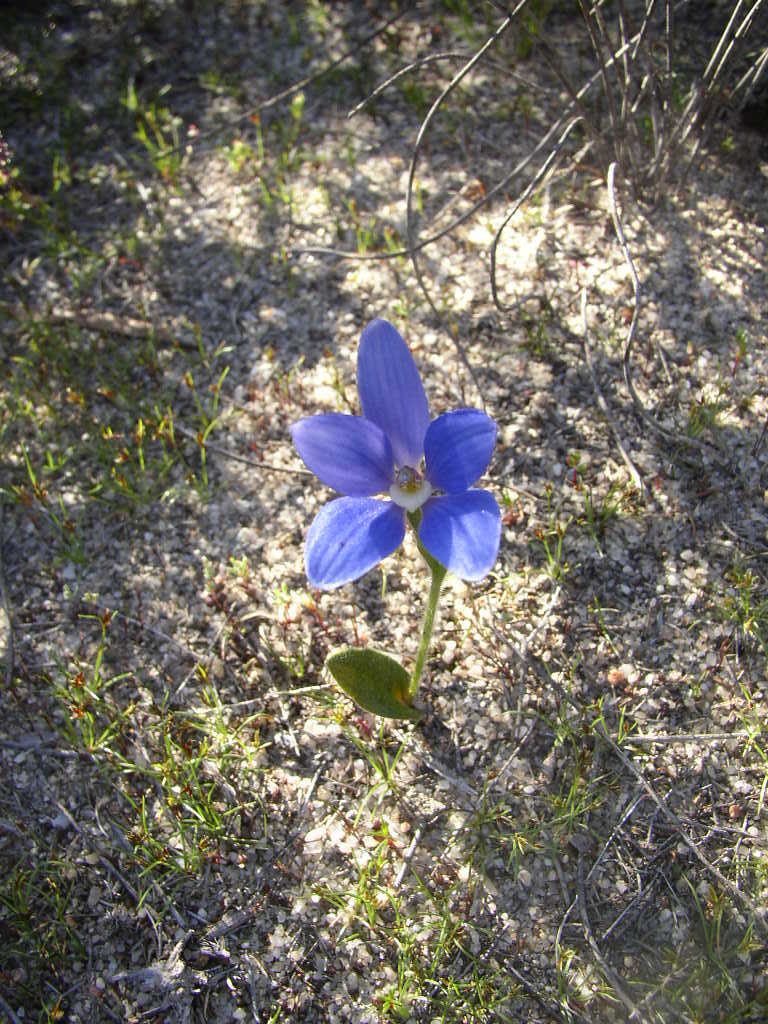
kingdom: Plantae
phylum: Tracheophyta
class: Liliopsida
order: Asparagales
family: Orchidaceae
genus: Caladenia
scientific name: Caladenia gemmata
